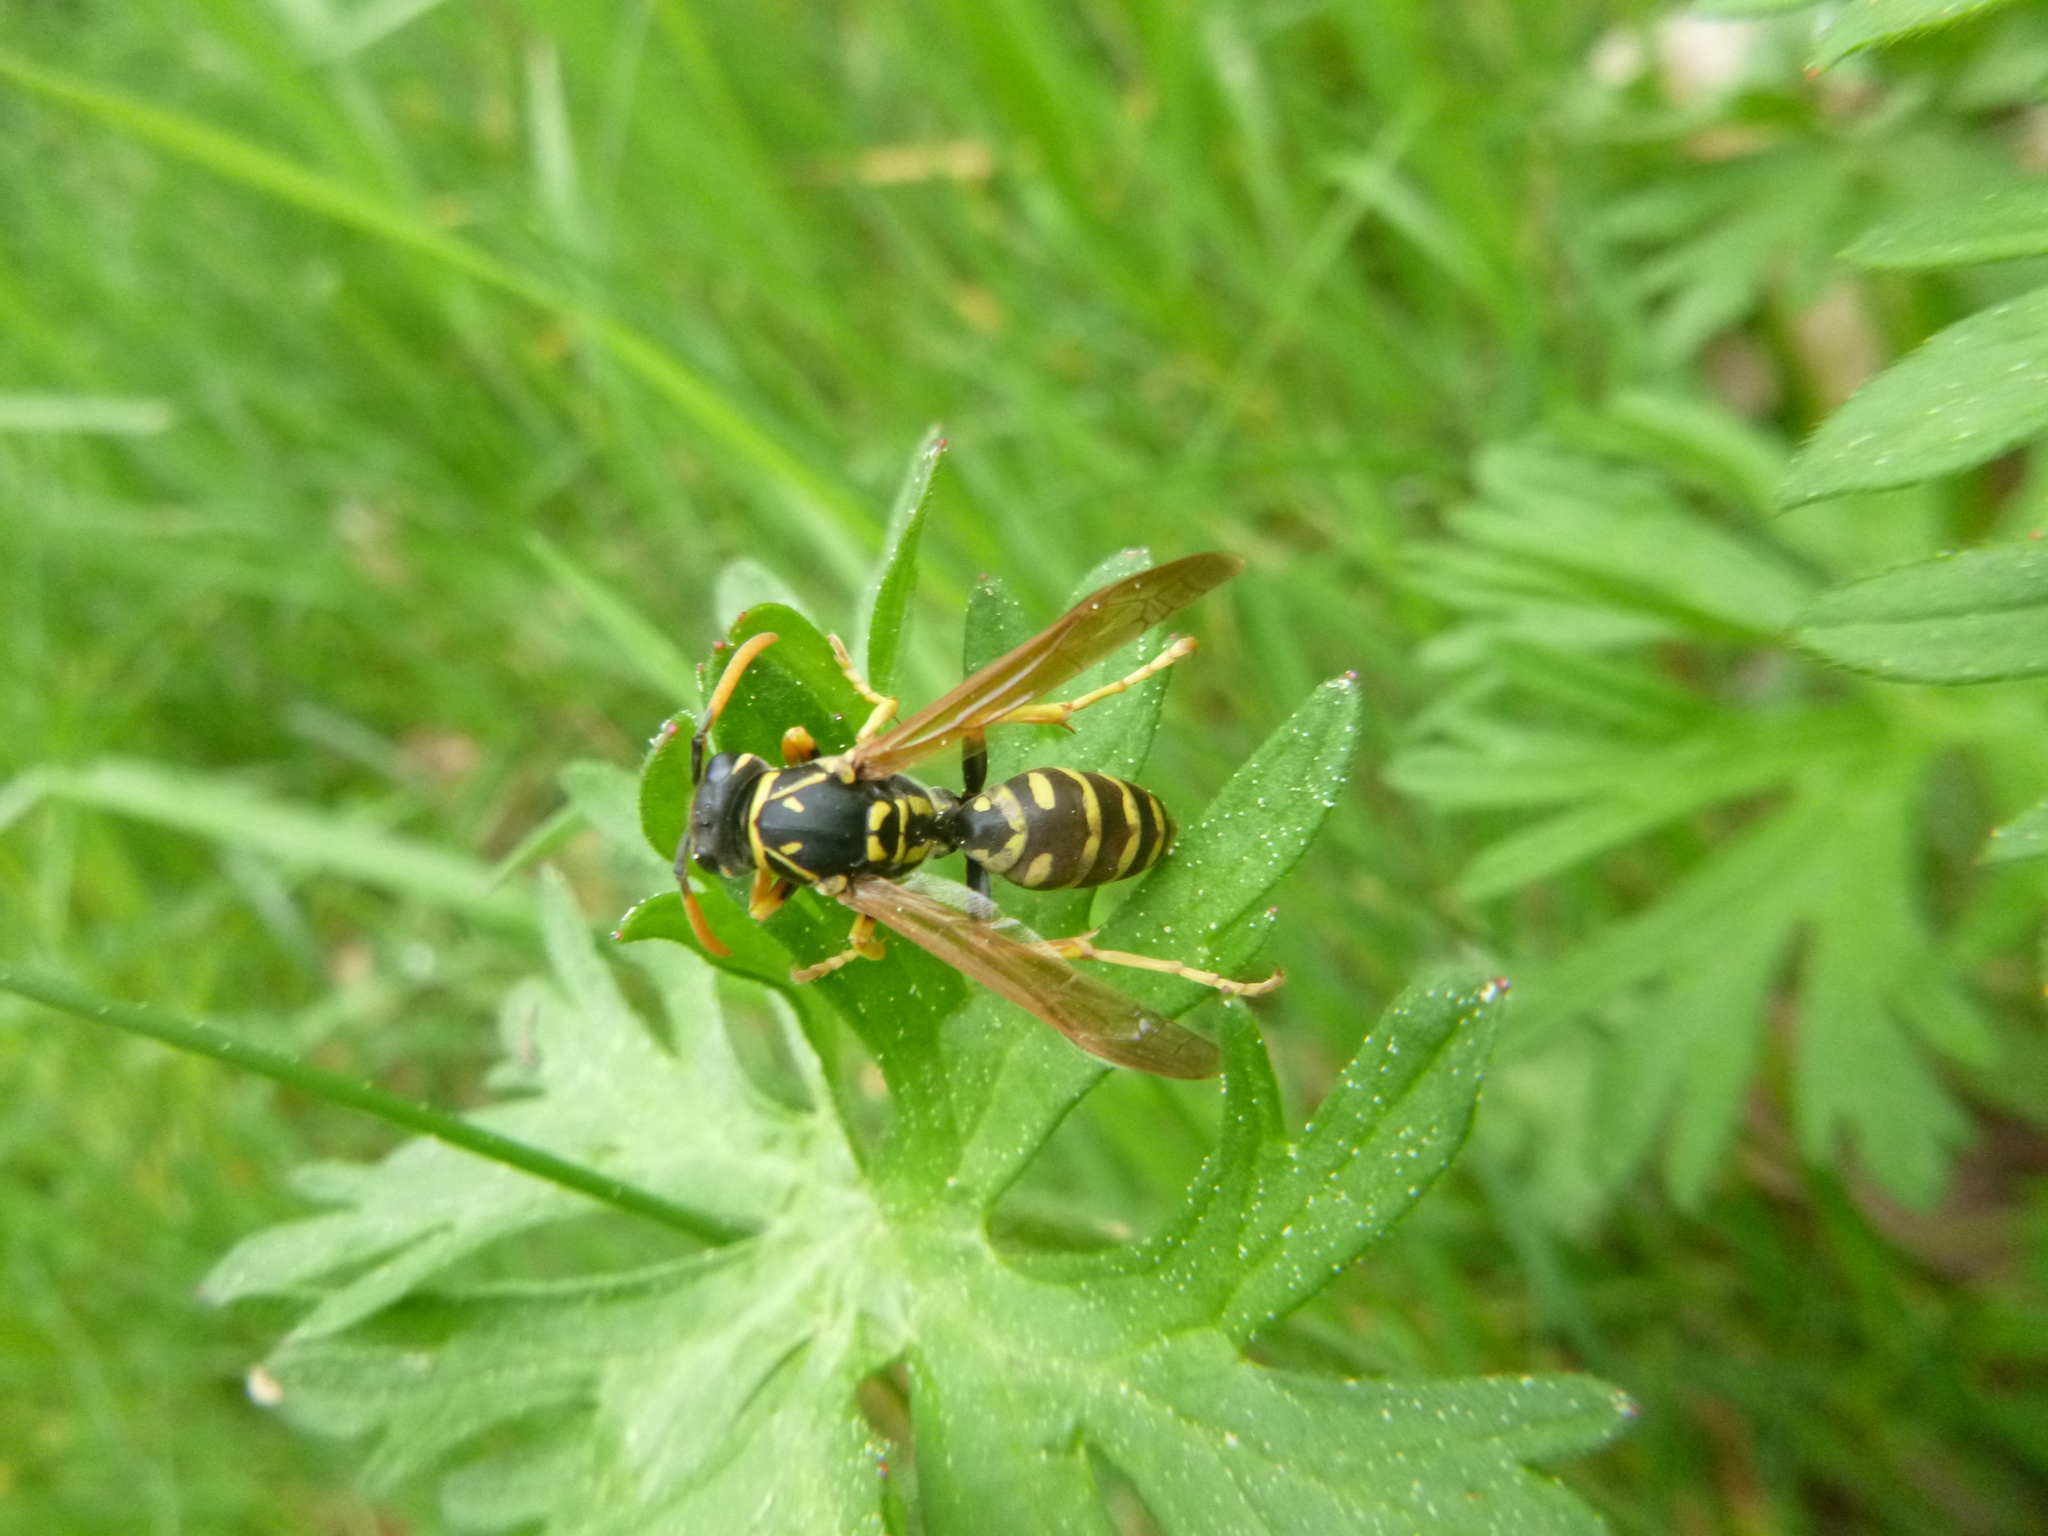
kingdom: Animalia
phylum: Arthropoda
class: Insecta
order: Hymenoptera
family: Eumenidae
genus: Polistes
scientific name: Polistes dominula
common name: Paper wasp
